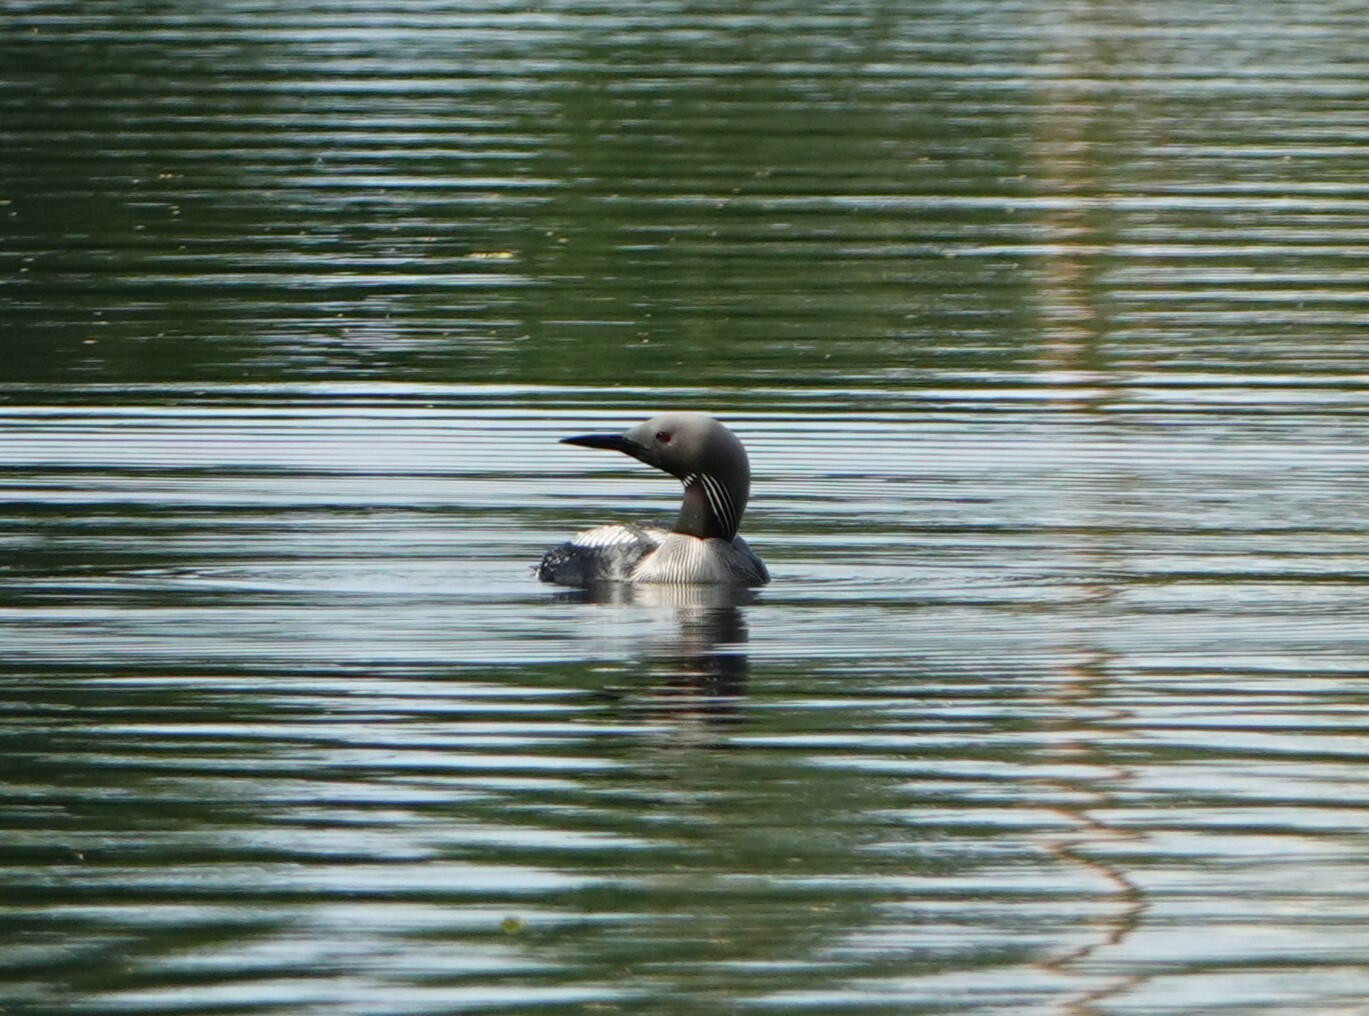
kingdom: Animalia
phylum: Chordata
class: Aves
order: Gaviiformes
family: Gaviidae
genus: Gavia
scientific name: Gavia arctica
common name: Black-throated loon
